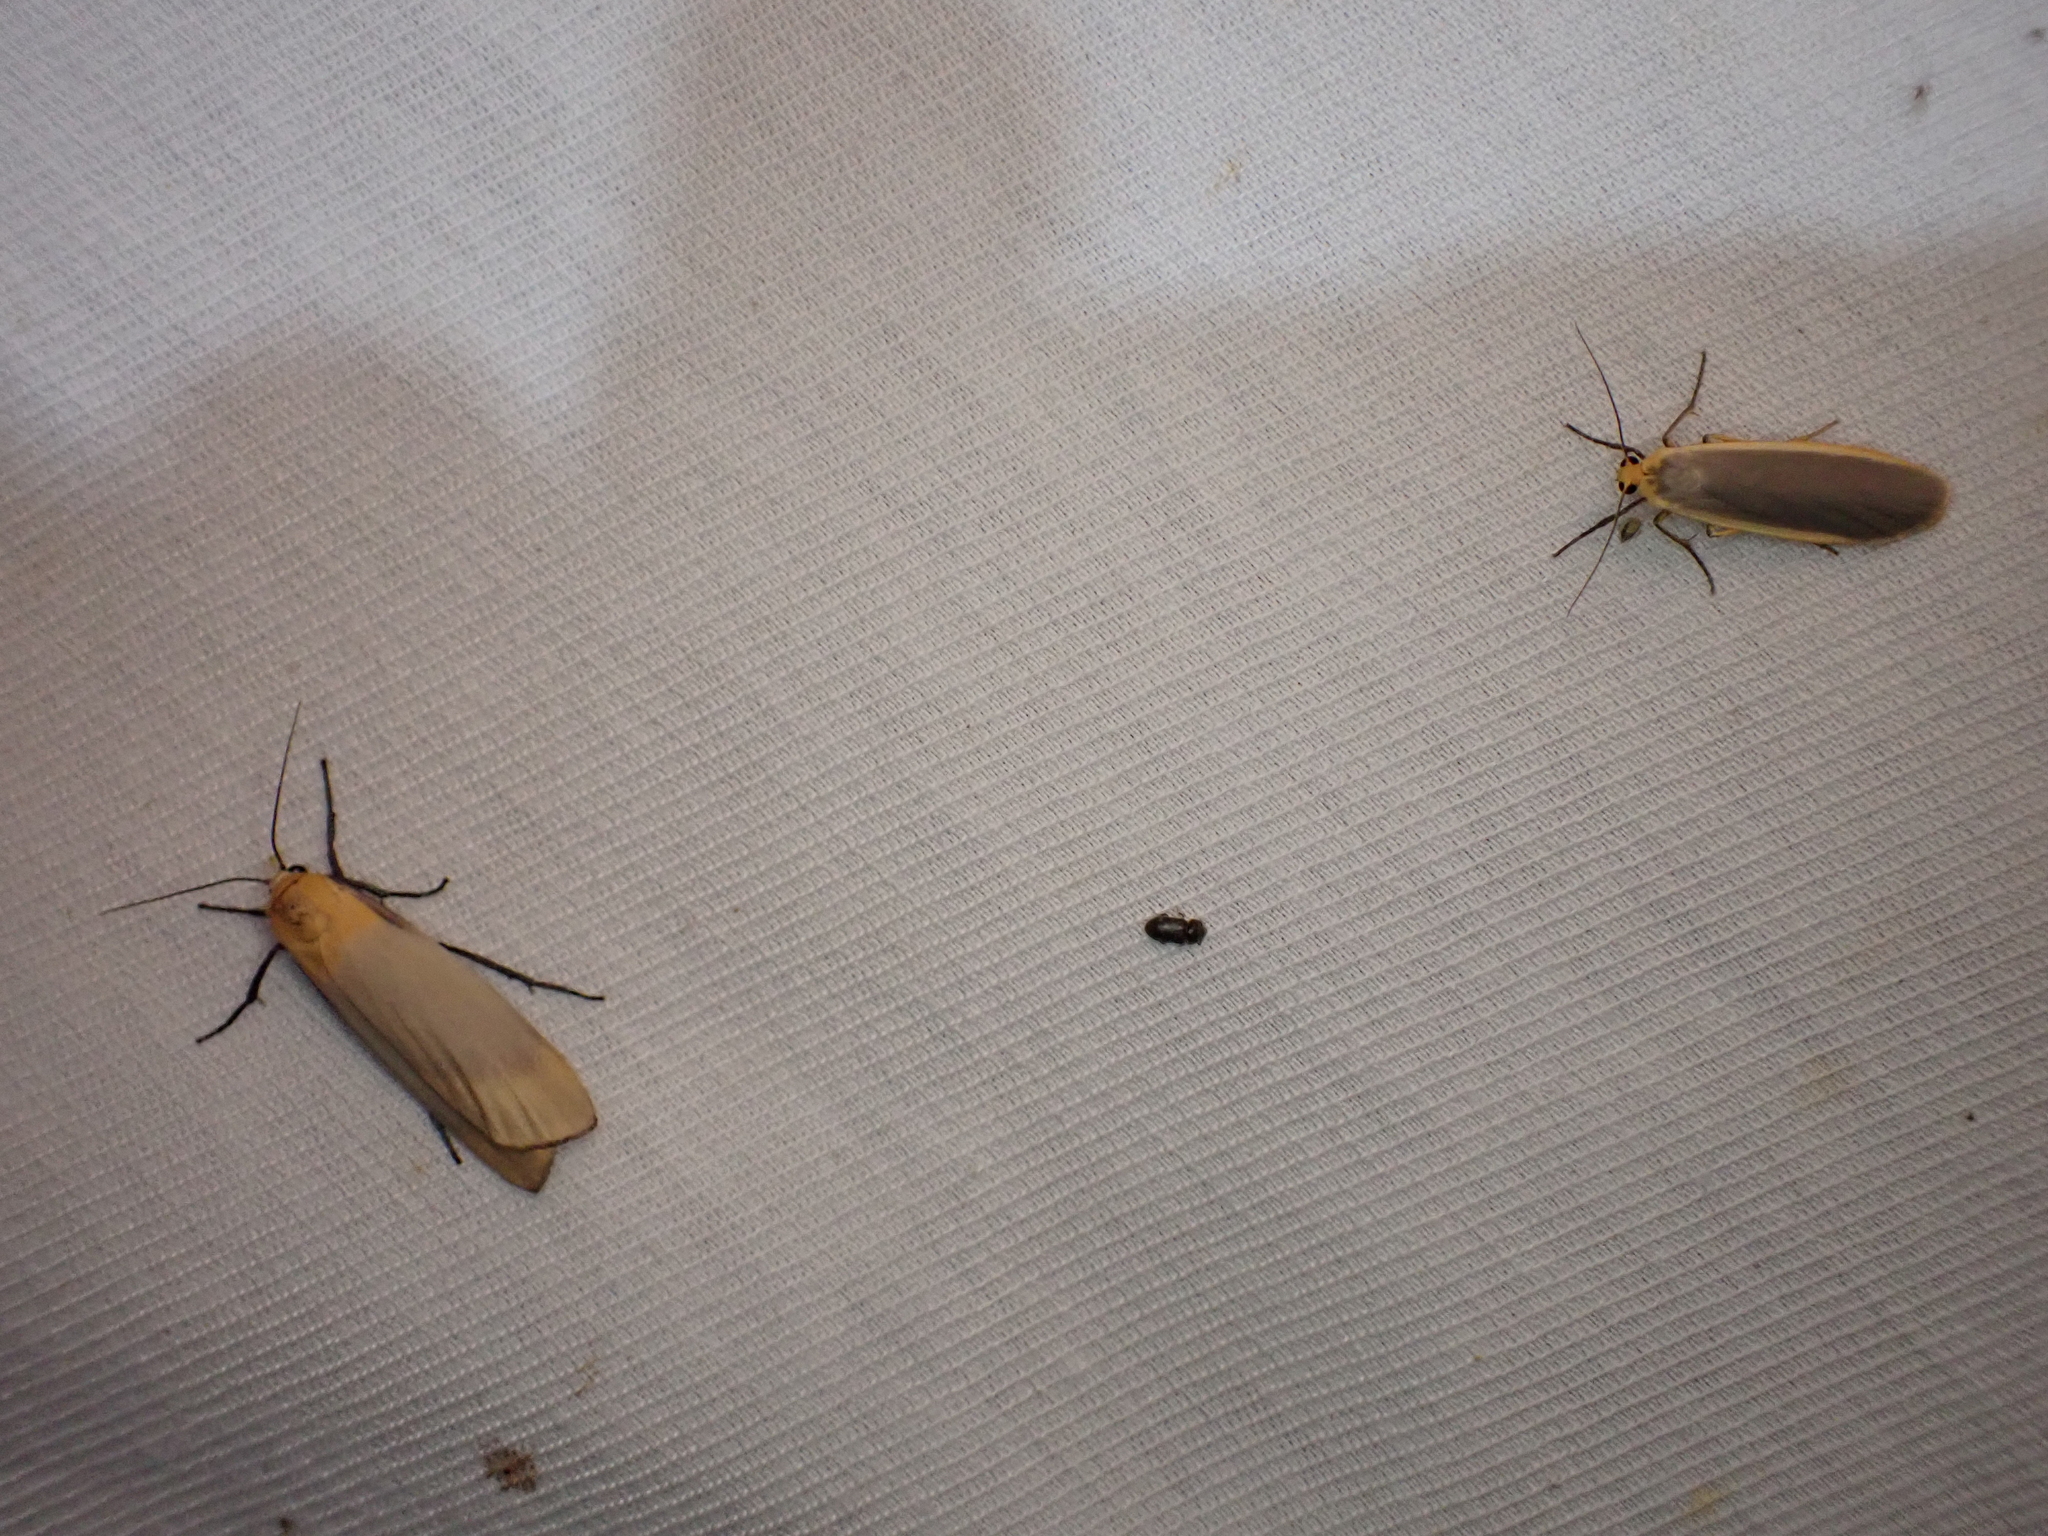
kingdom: Animalia
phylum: Arthropoda
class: Insecta
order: Lepidoptera
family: Erebidae
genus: Lithosia
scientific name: Lithosia quadra
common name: Four-spotted footman
